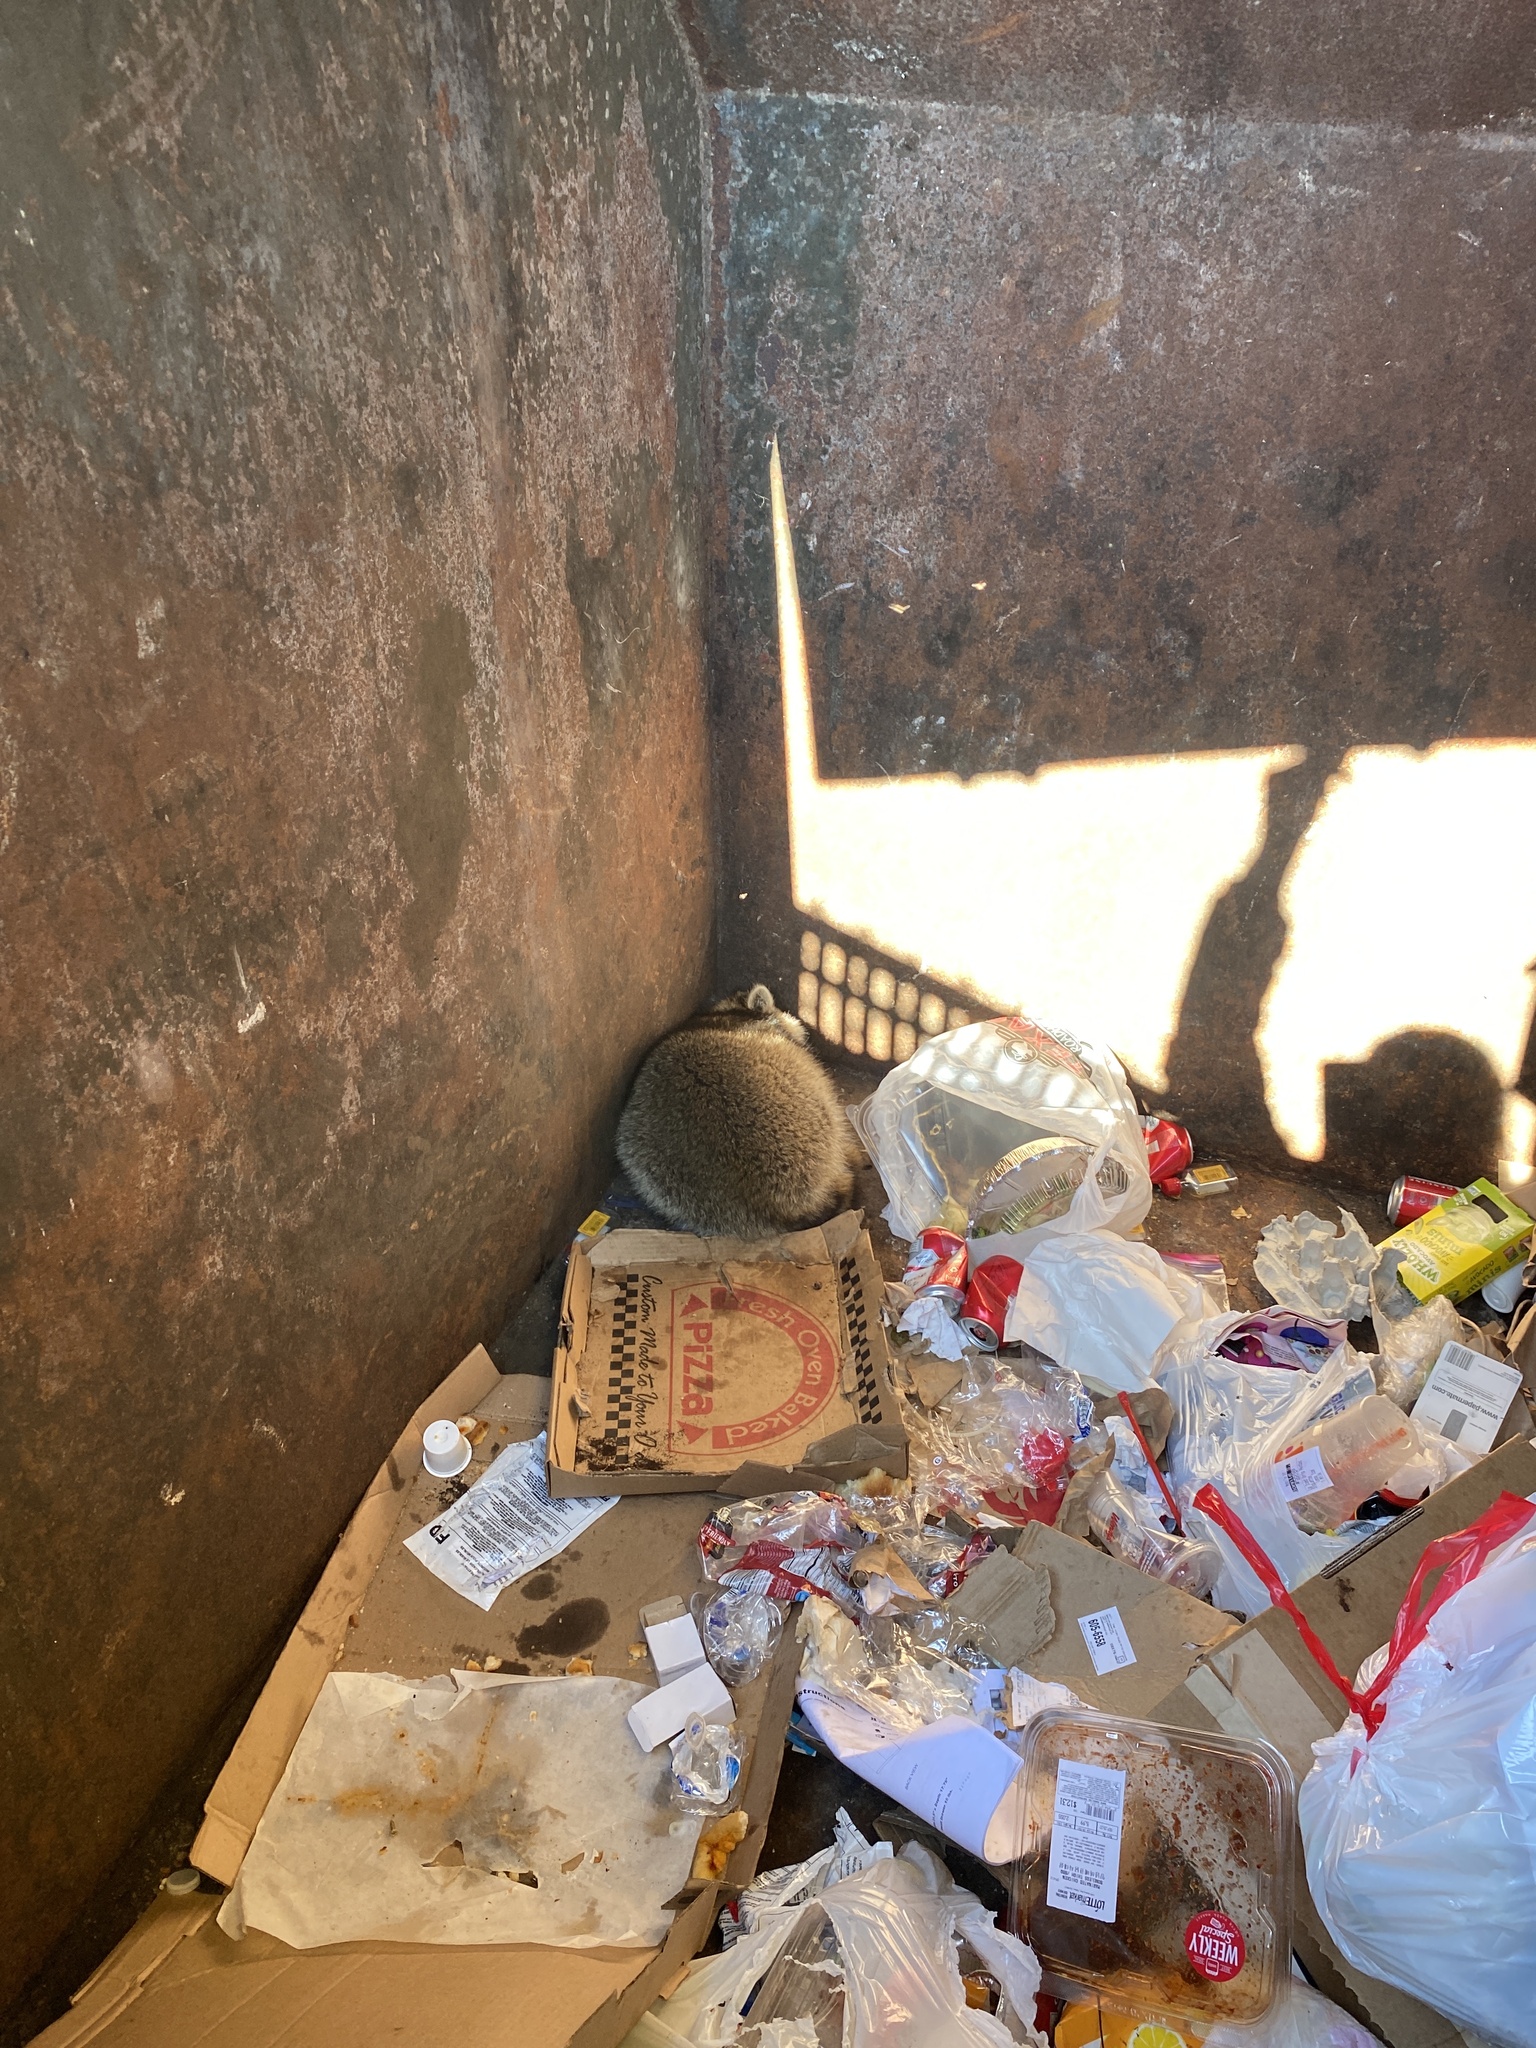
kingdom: Animalia
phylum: Chordata
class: Mammalia
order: Carnivora
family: Procyonidae
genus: Procyon
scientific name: Procyon lotor
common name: Raccoon
